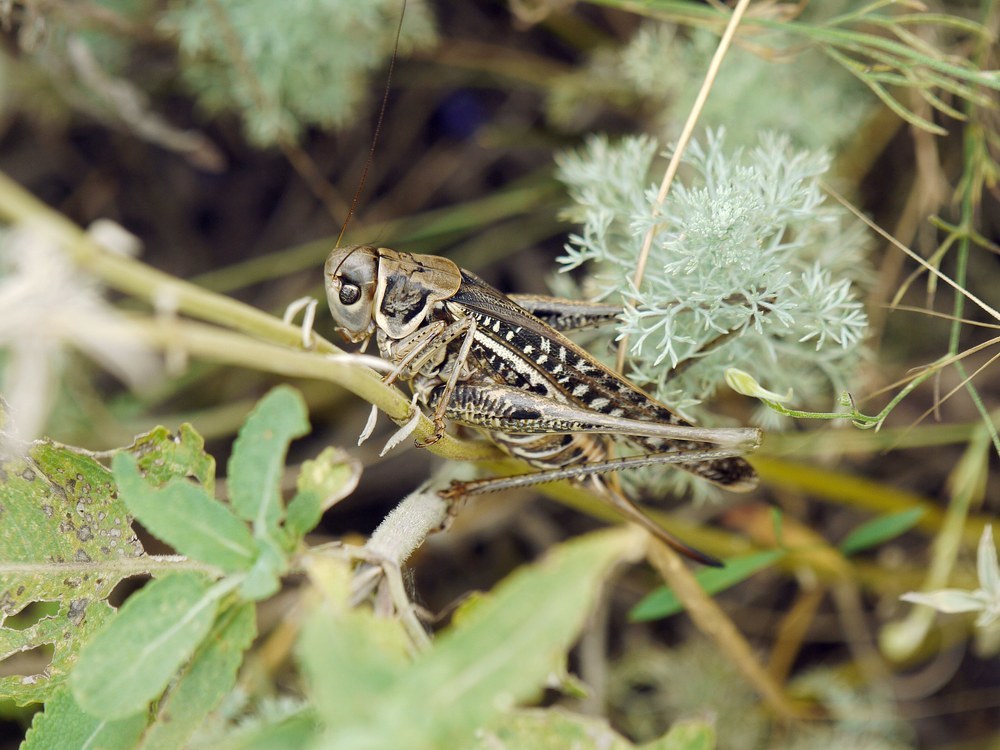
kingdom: Animalia
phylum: Arthropoda
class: Insecta
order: Orthoptera
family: Tettigoniidae
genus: Decticus
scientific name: Decticus albifrons
